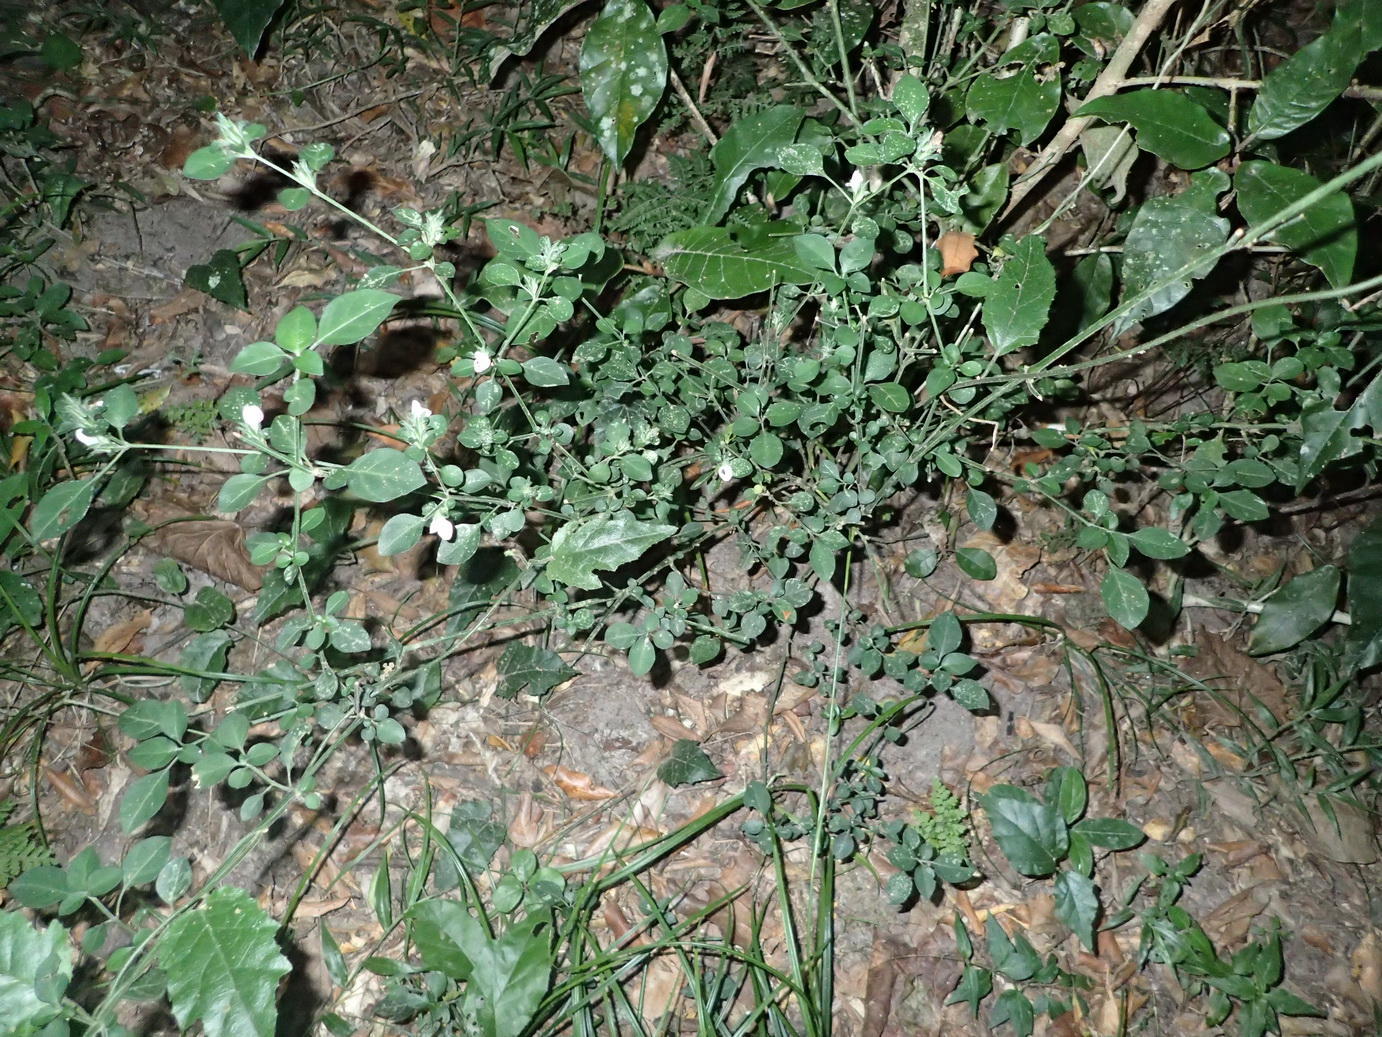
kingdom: Plantae
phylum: Tracheophyta
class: Magnoliopsida
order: Lamiales
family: Acanthaceae
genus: Isoglossa
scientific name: Isoglossa ciliata
